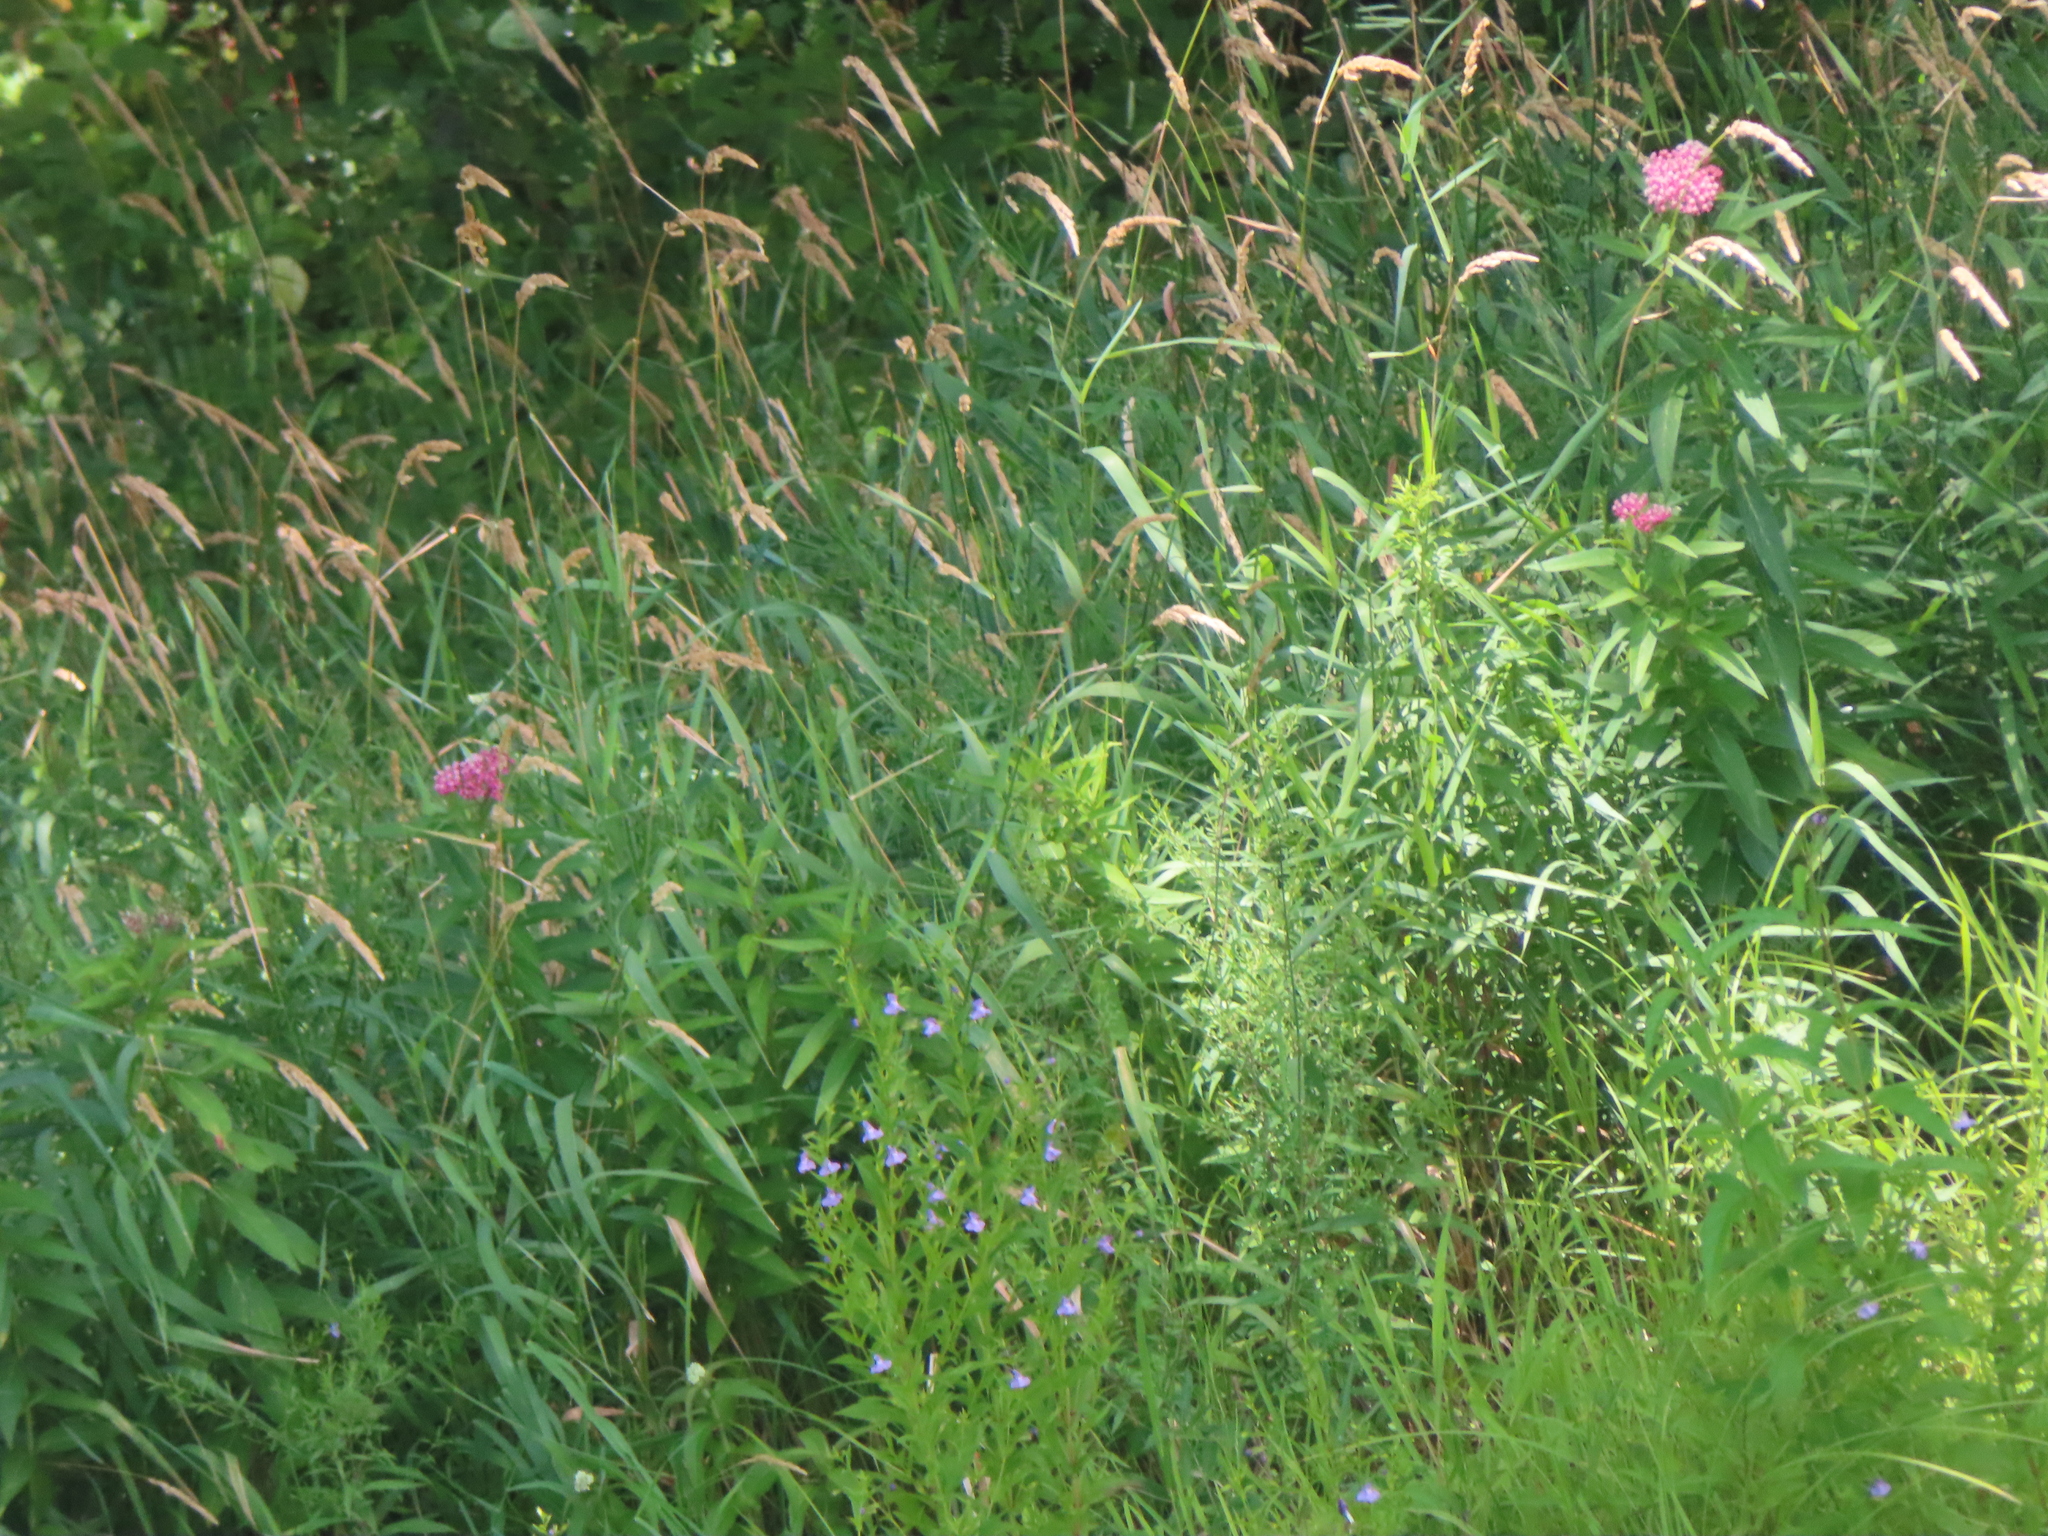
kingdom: Plantae
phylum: Tracheophyta
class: Magnoliopsida
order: Lamiales
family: Phrymaceae
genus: Mimulus
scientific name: Mimulus ringens
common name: Allegheny monkeyflower
